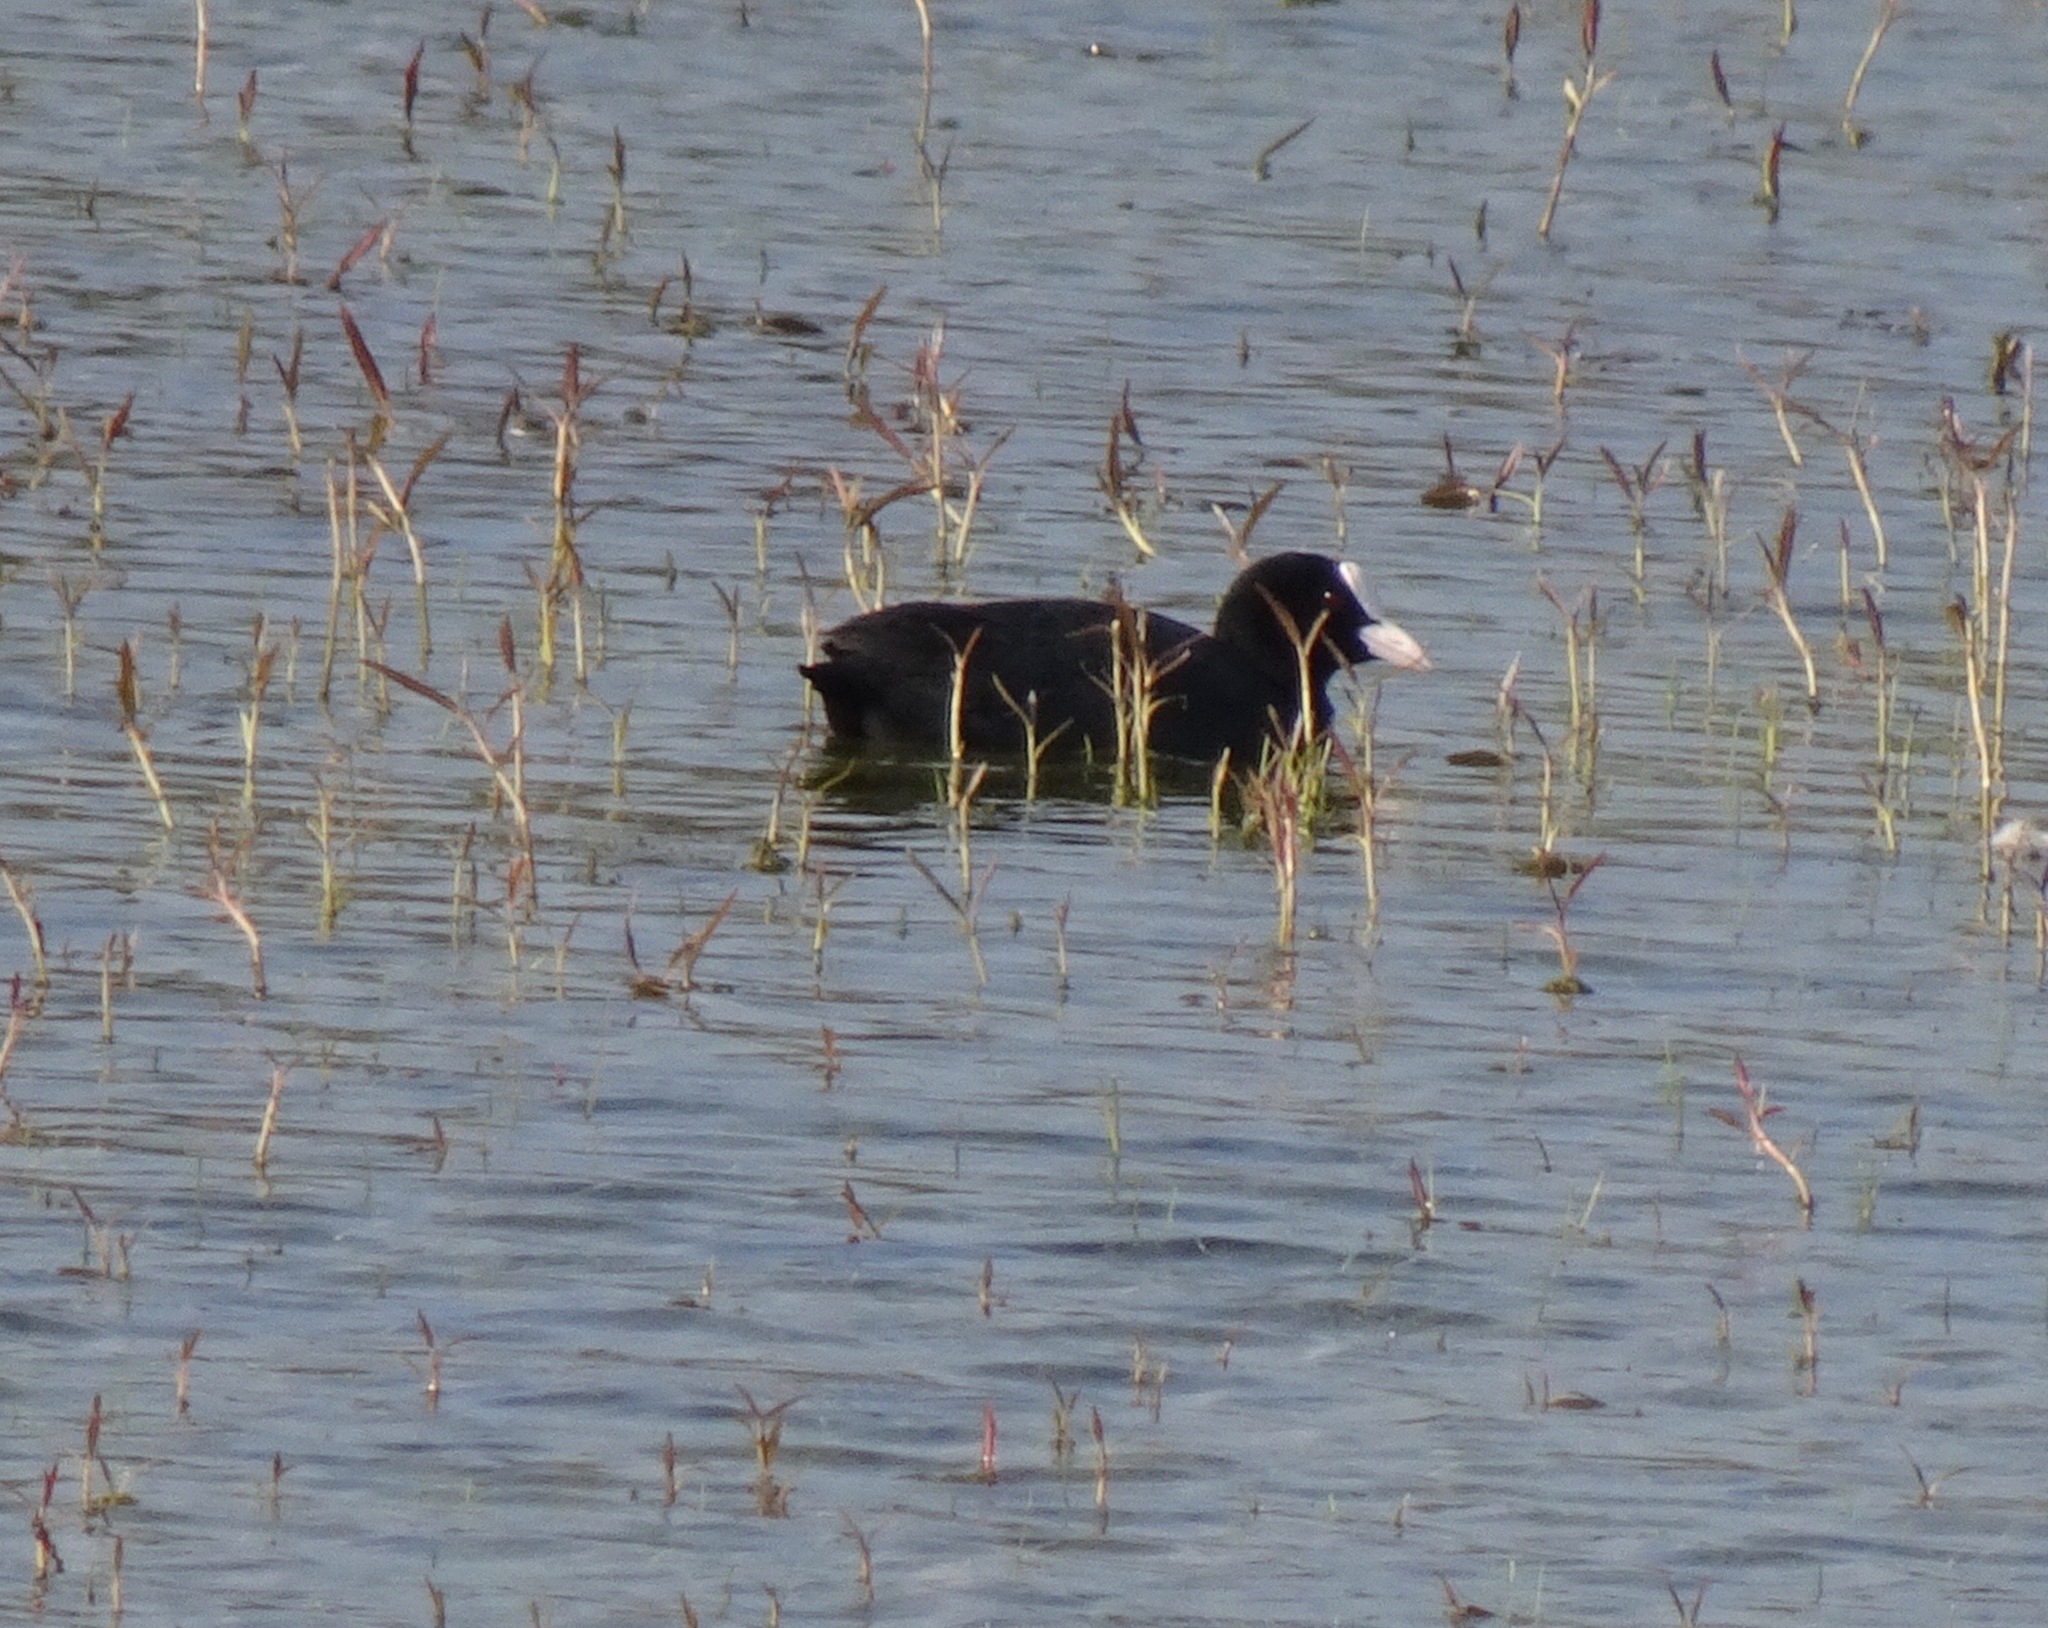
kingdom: Animalia
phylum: Chordata
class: Aves
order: Gruiformes
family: Rallidae
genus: Fulica
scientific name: Fulica atra
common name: Eurasian coot
